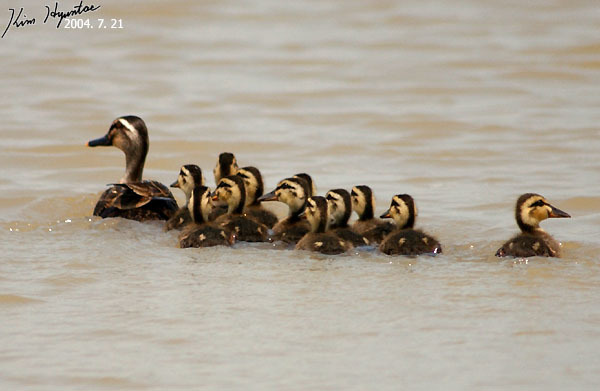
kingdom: Animalia
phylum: Chordata
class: Aves
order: Anseriformes
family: Anatidae
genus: Anas
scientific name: Anas zonorhyncha
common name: Eastern spot-billed duck
